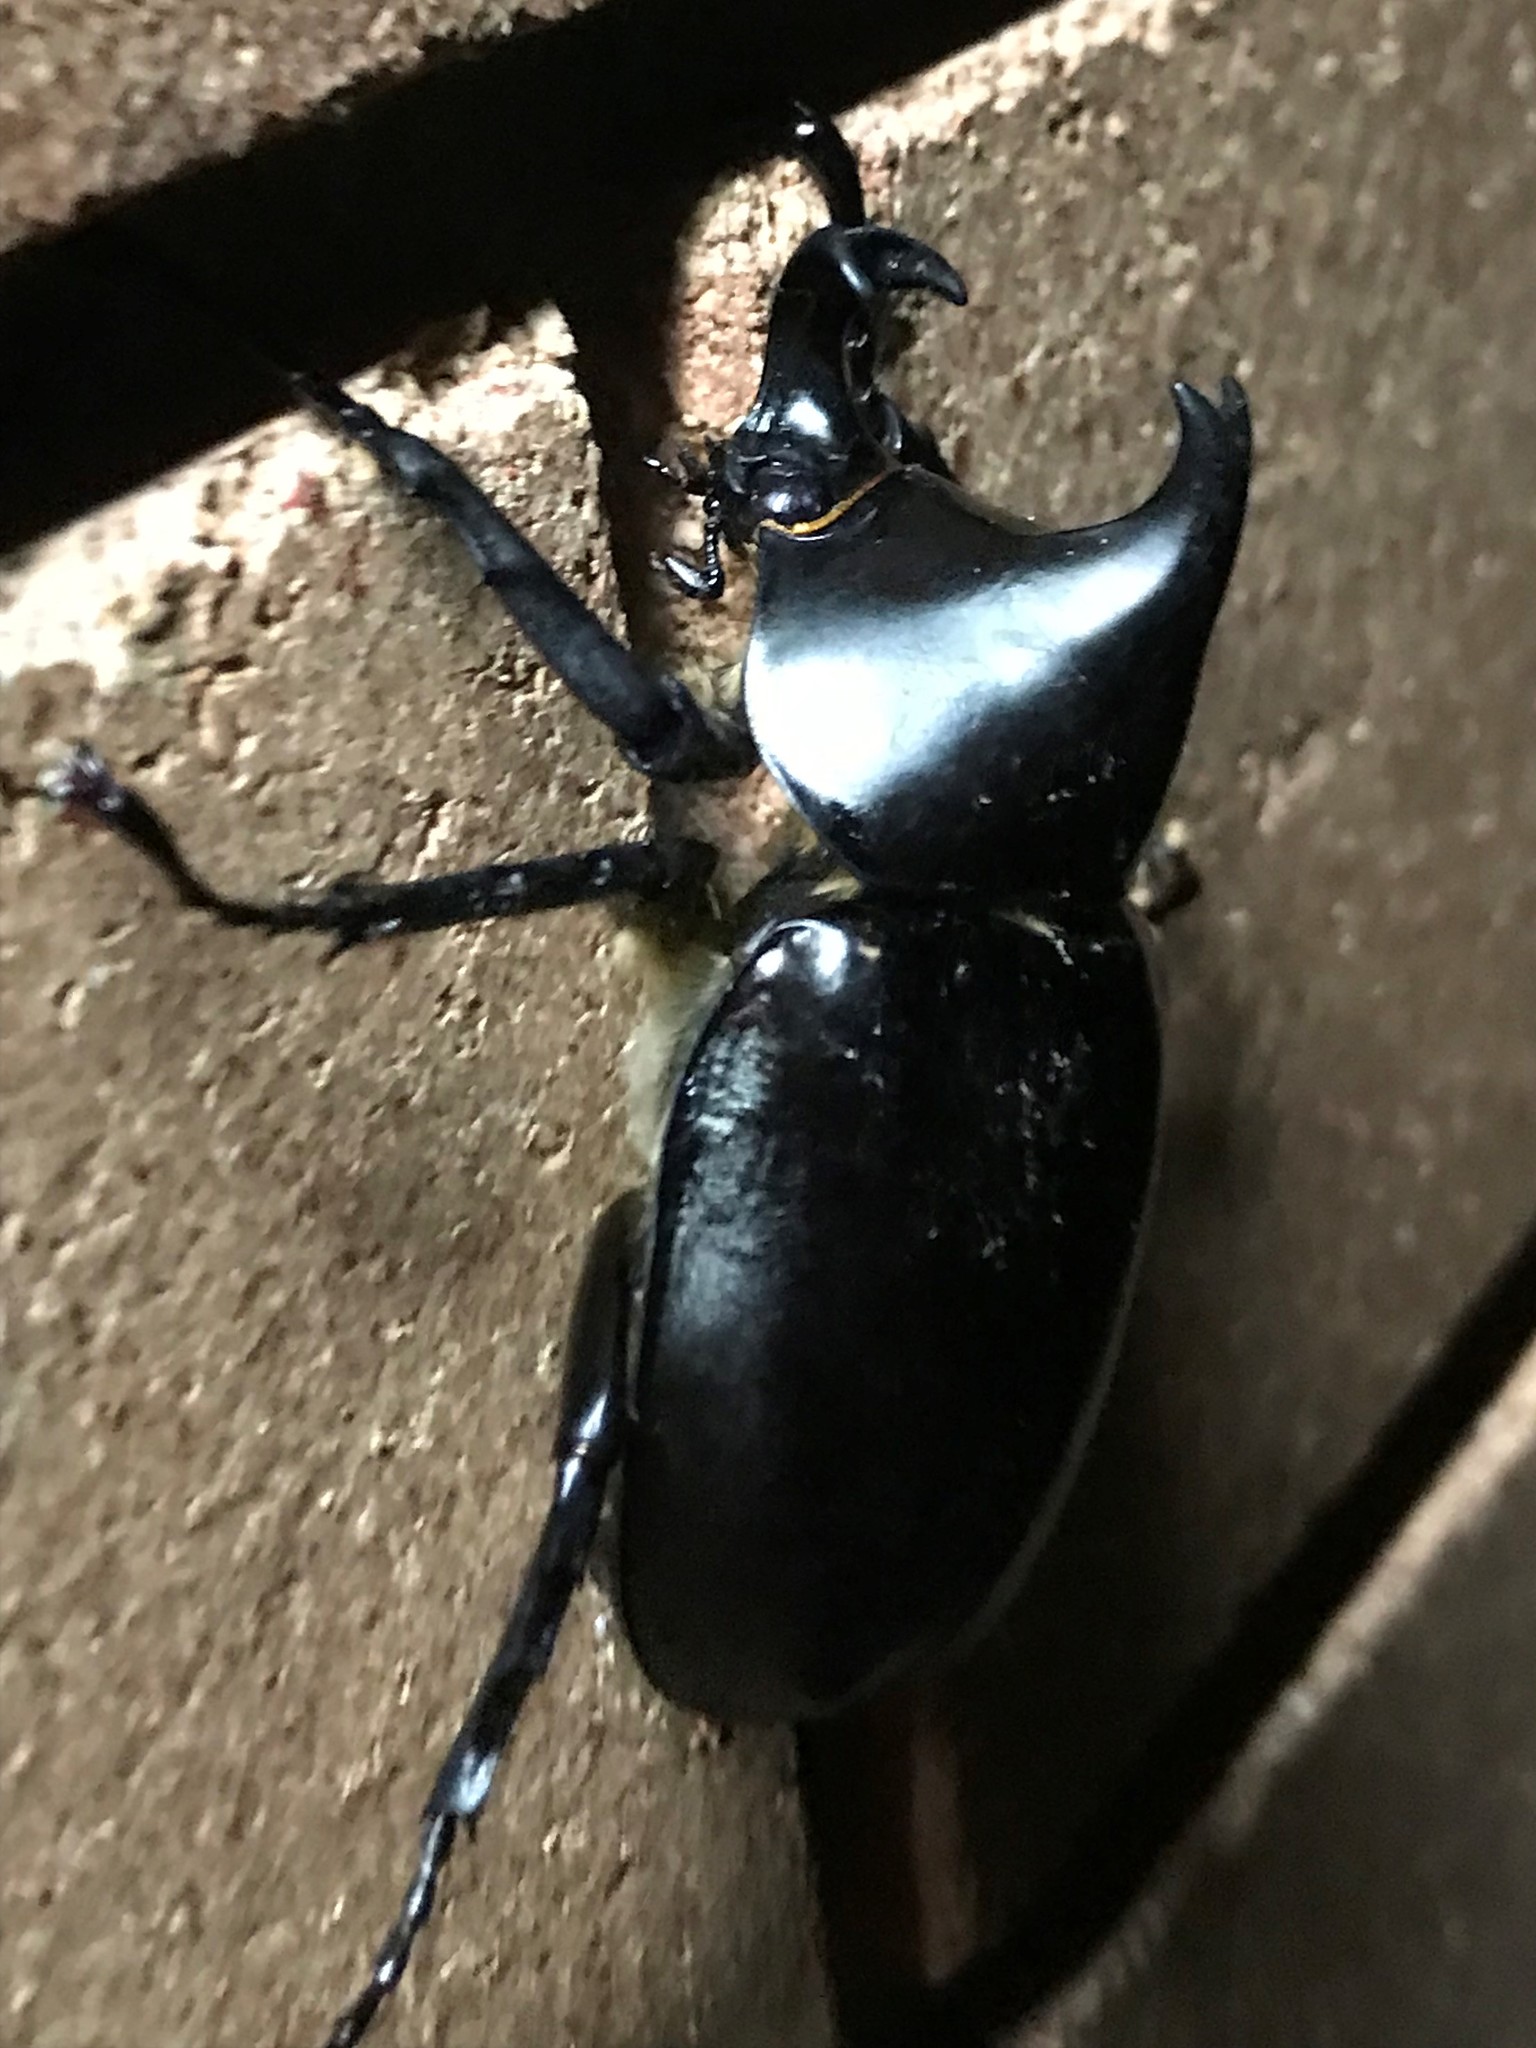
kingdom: Animalia
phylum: Arthropoda
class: Insecta
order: Coleoptera
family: Scarabaeidae
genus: Xylotrupes
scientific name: Xylotrupes australicus
